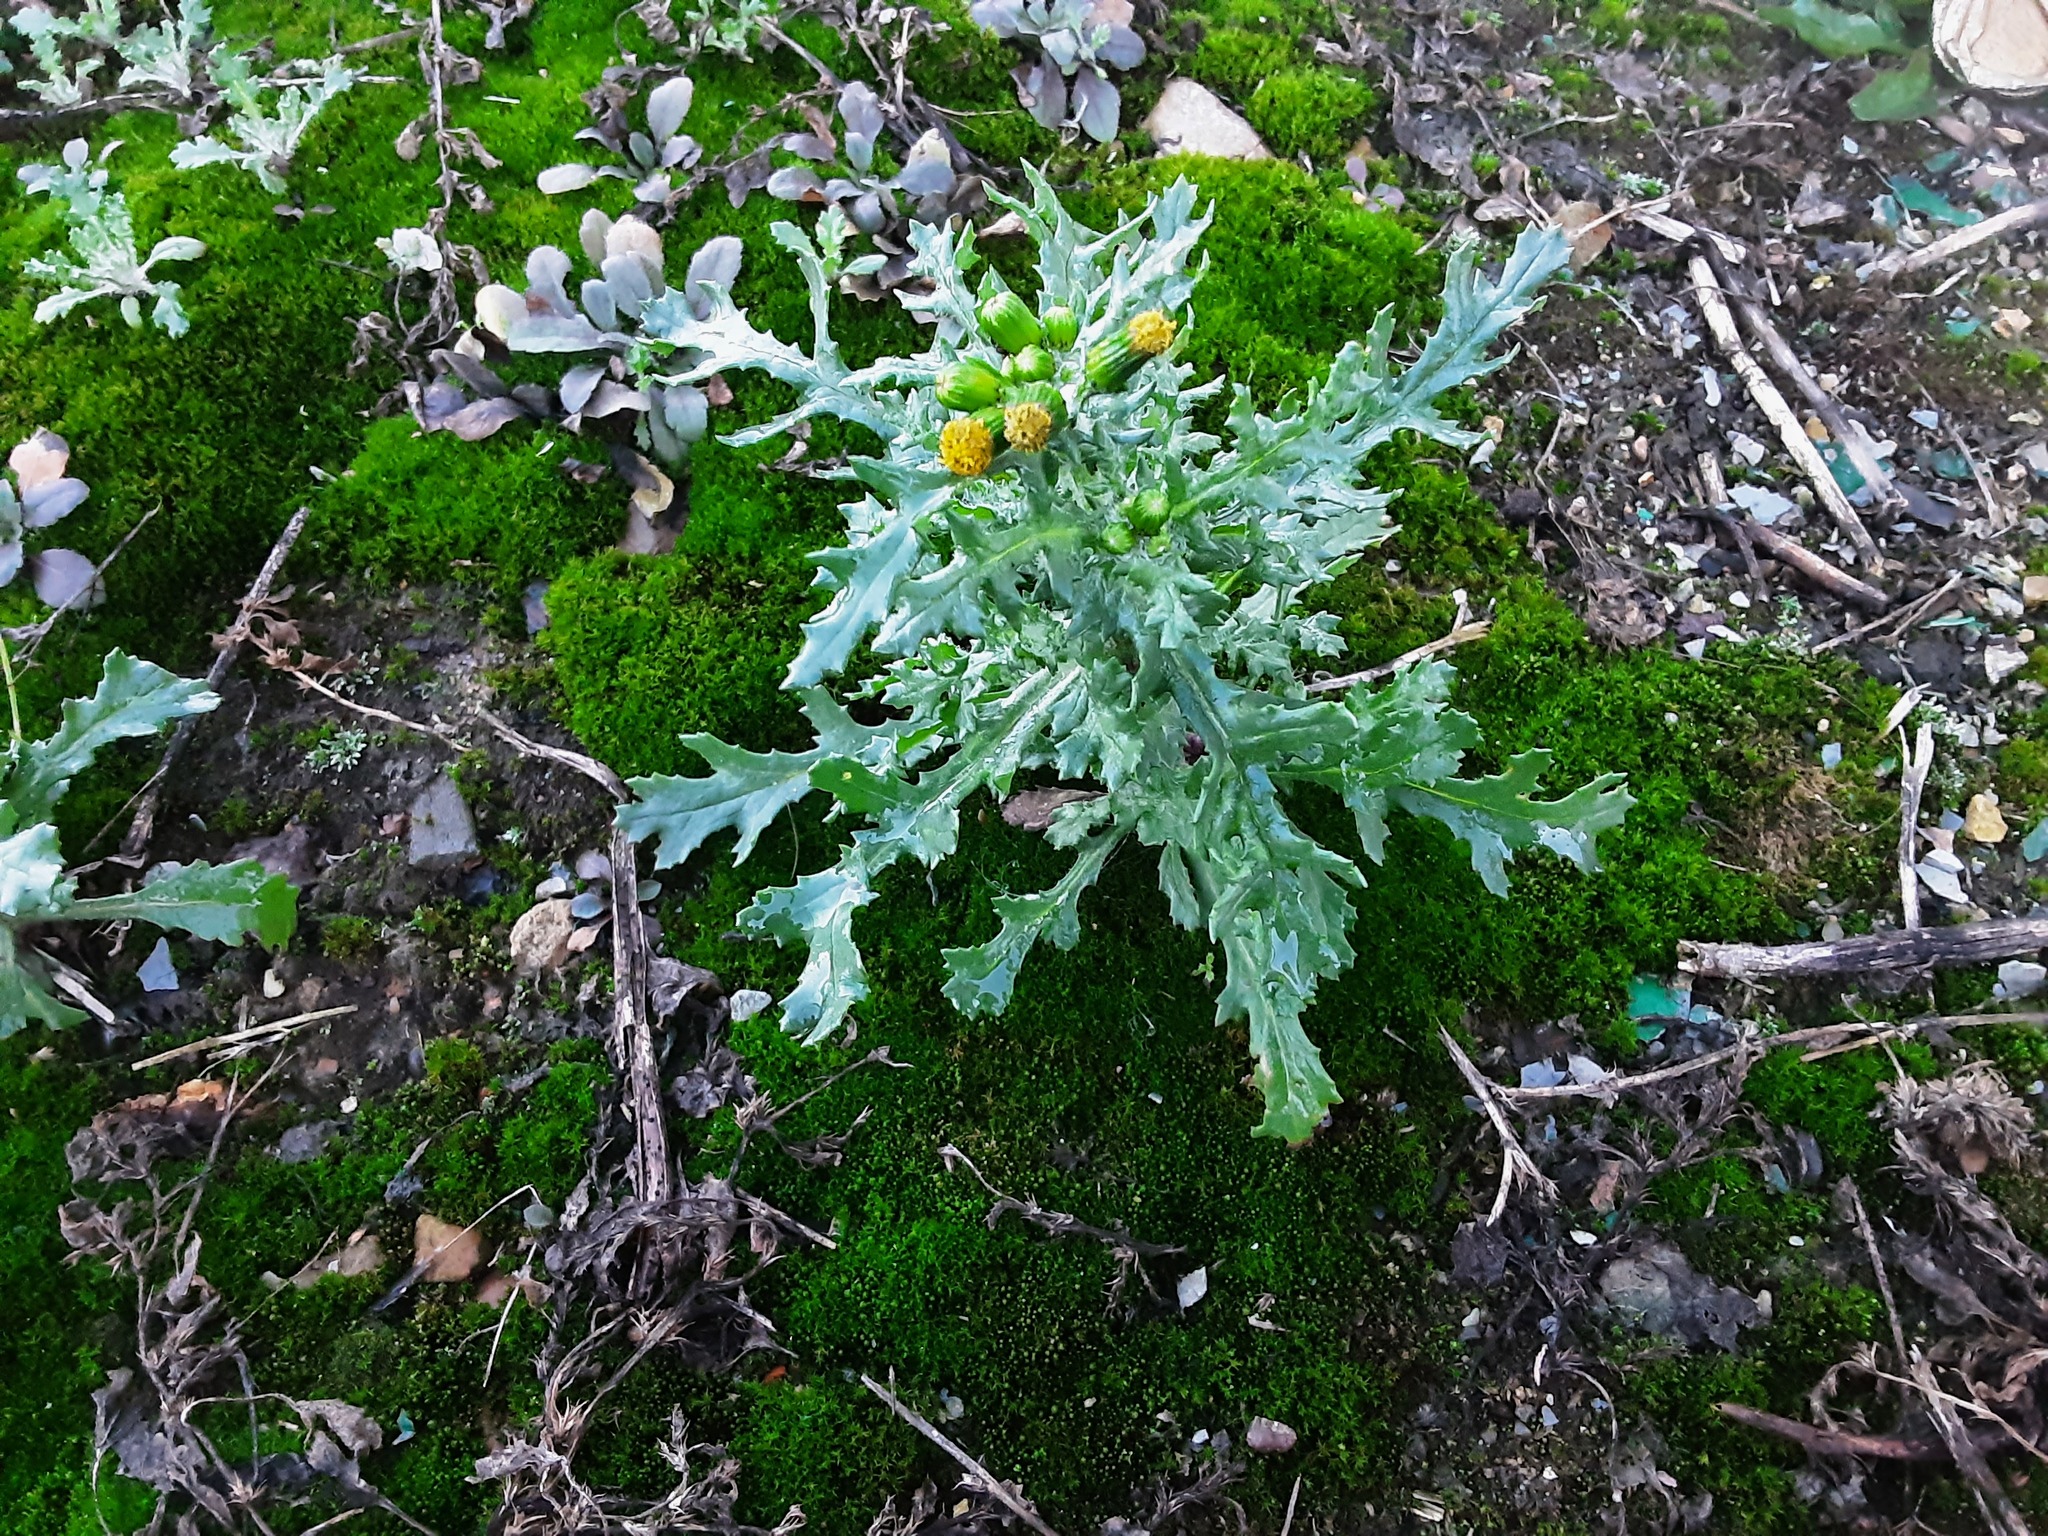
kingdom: Plantae
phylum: Tracheophyta
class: Magnoliopsida
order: Asterales
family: Asteraceae
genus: Senecio
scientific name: Senecio vulgaris
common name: Old-man-in-the-spring
